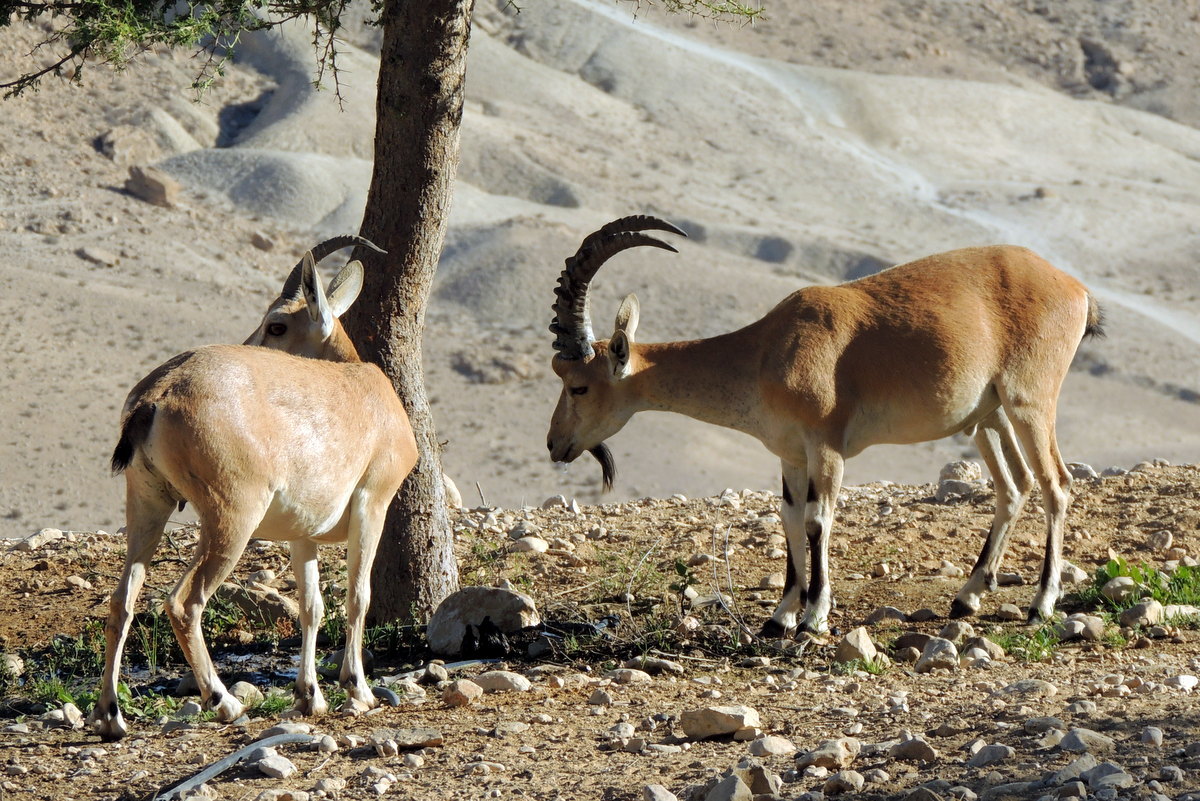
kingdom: Animalia
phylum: Chordata
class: Mammalia
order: Artiodactyla
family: Bovidae
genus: Capra
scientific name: Capra nubiana
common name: Nubian ibex
